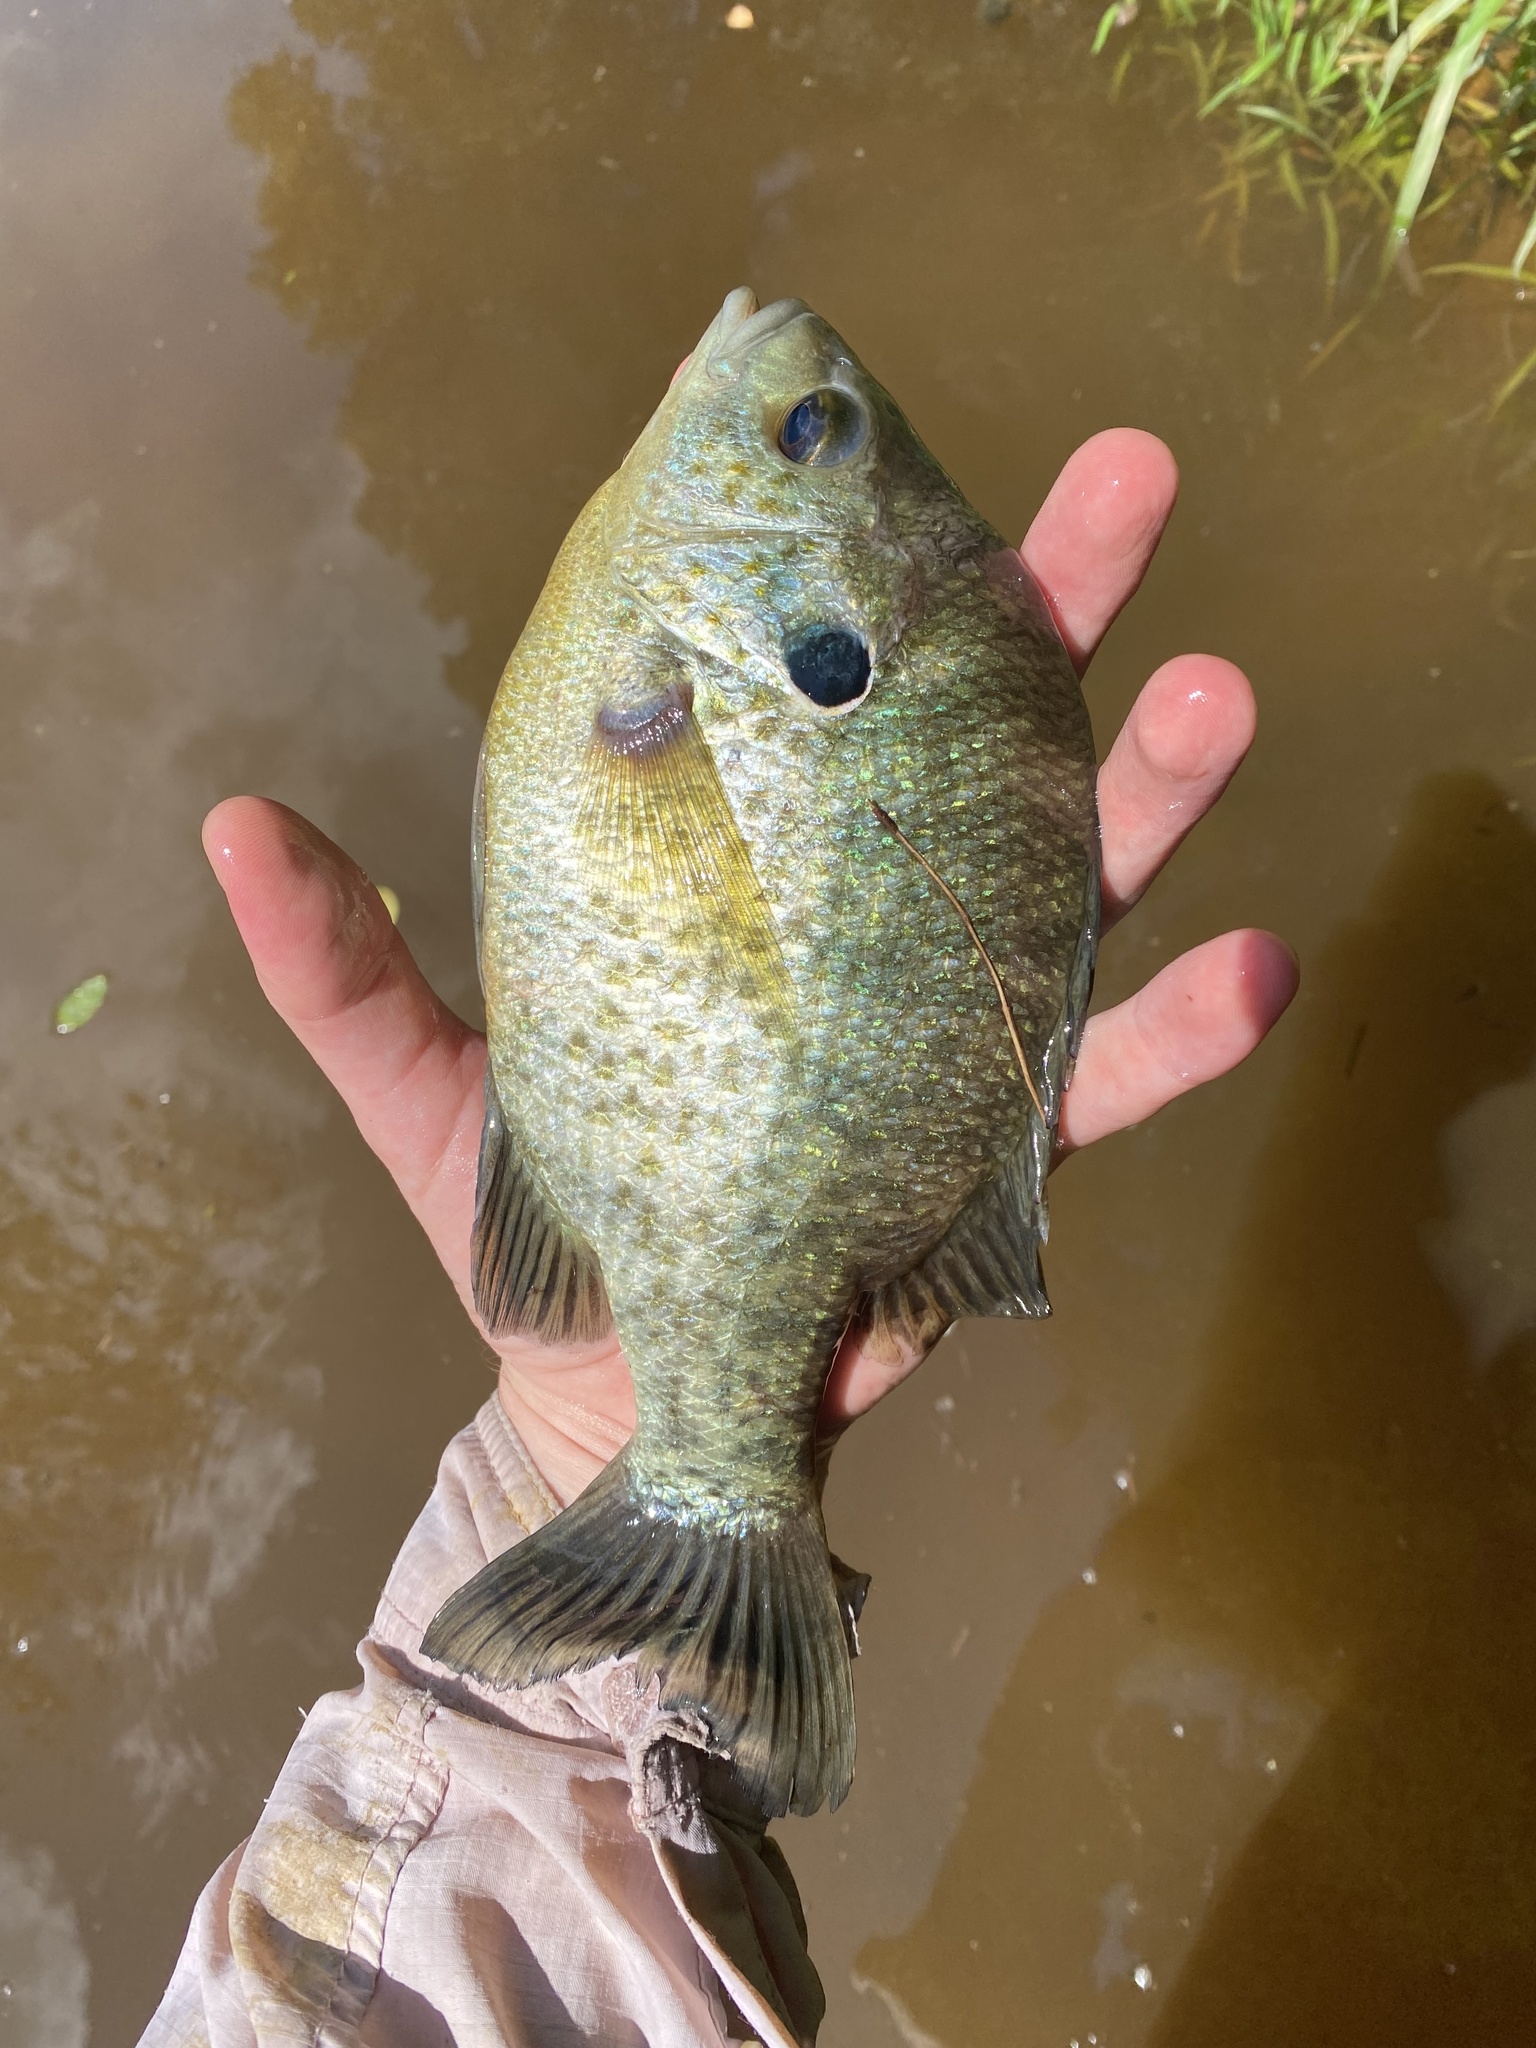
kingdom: Animalia
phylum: Chordata
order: Perciformes
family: Centrarchidae
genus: Lepomis
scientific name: Lepomis microlophus
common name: Redear sunfish
